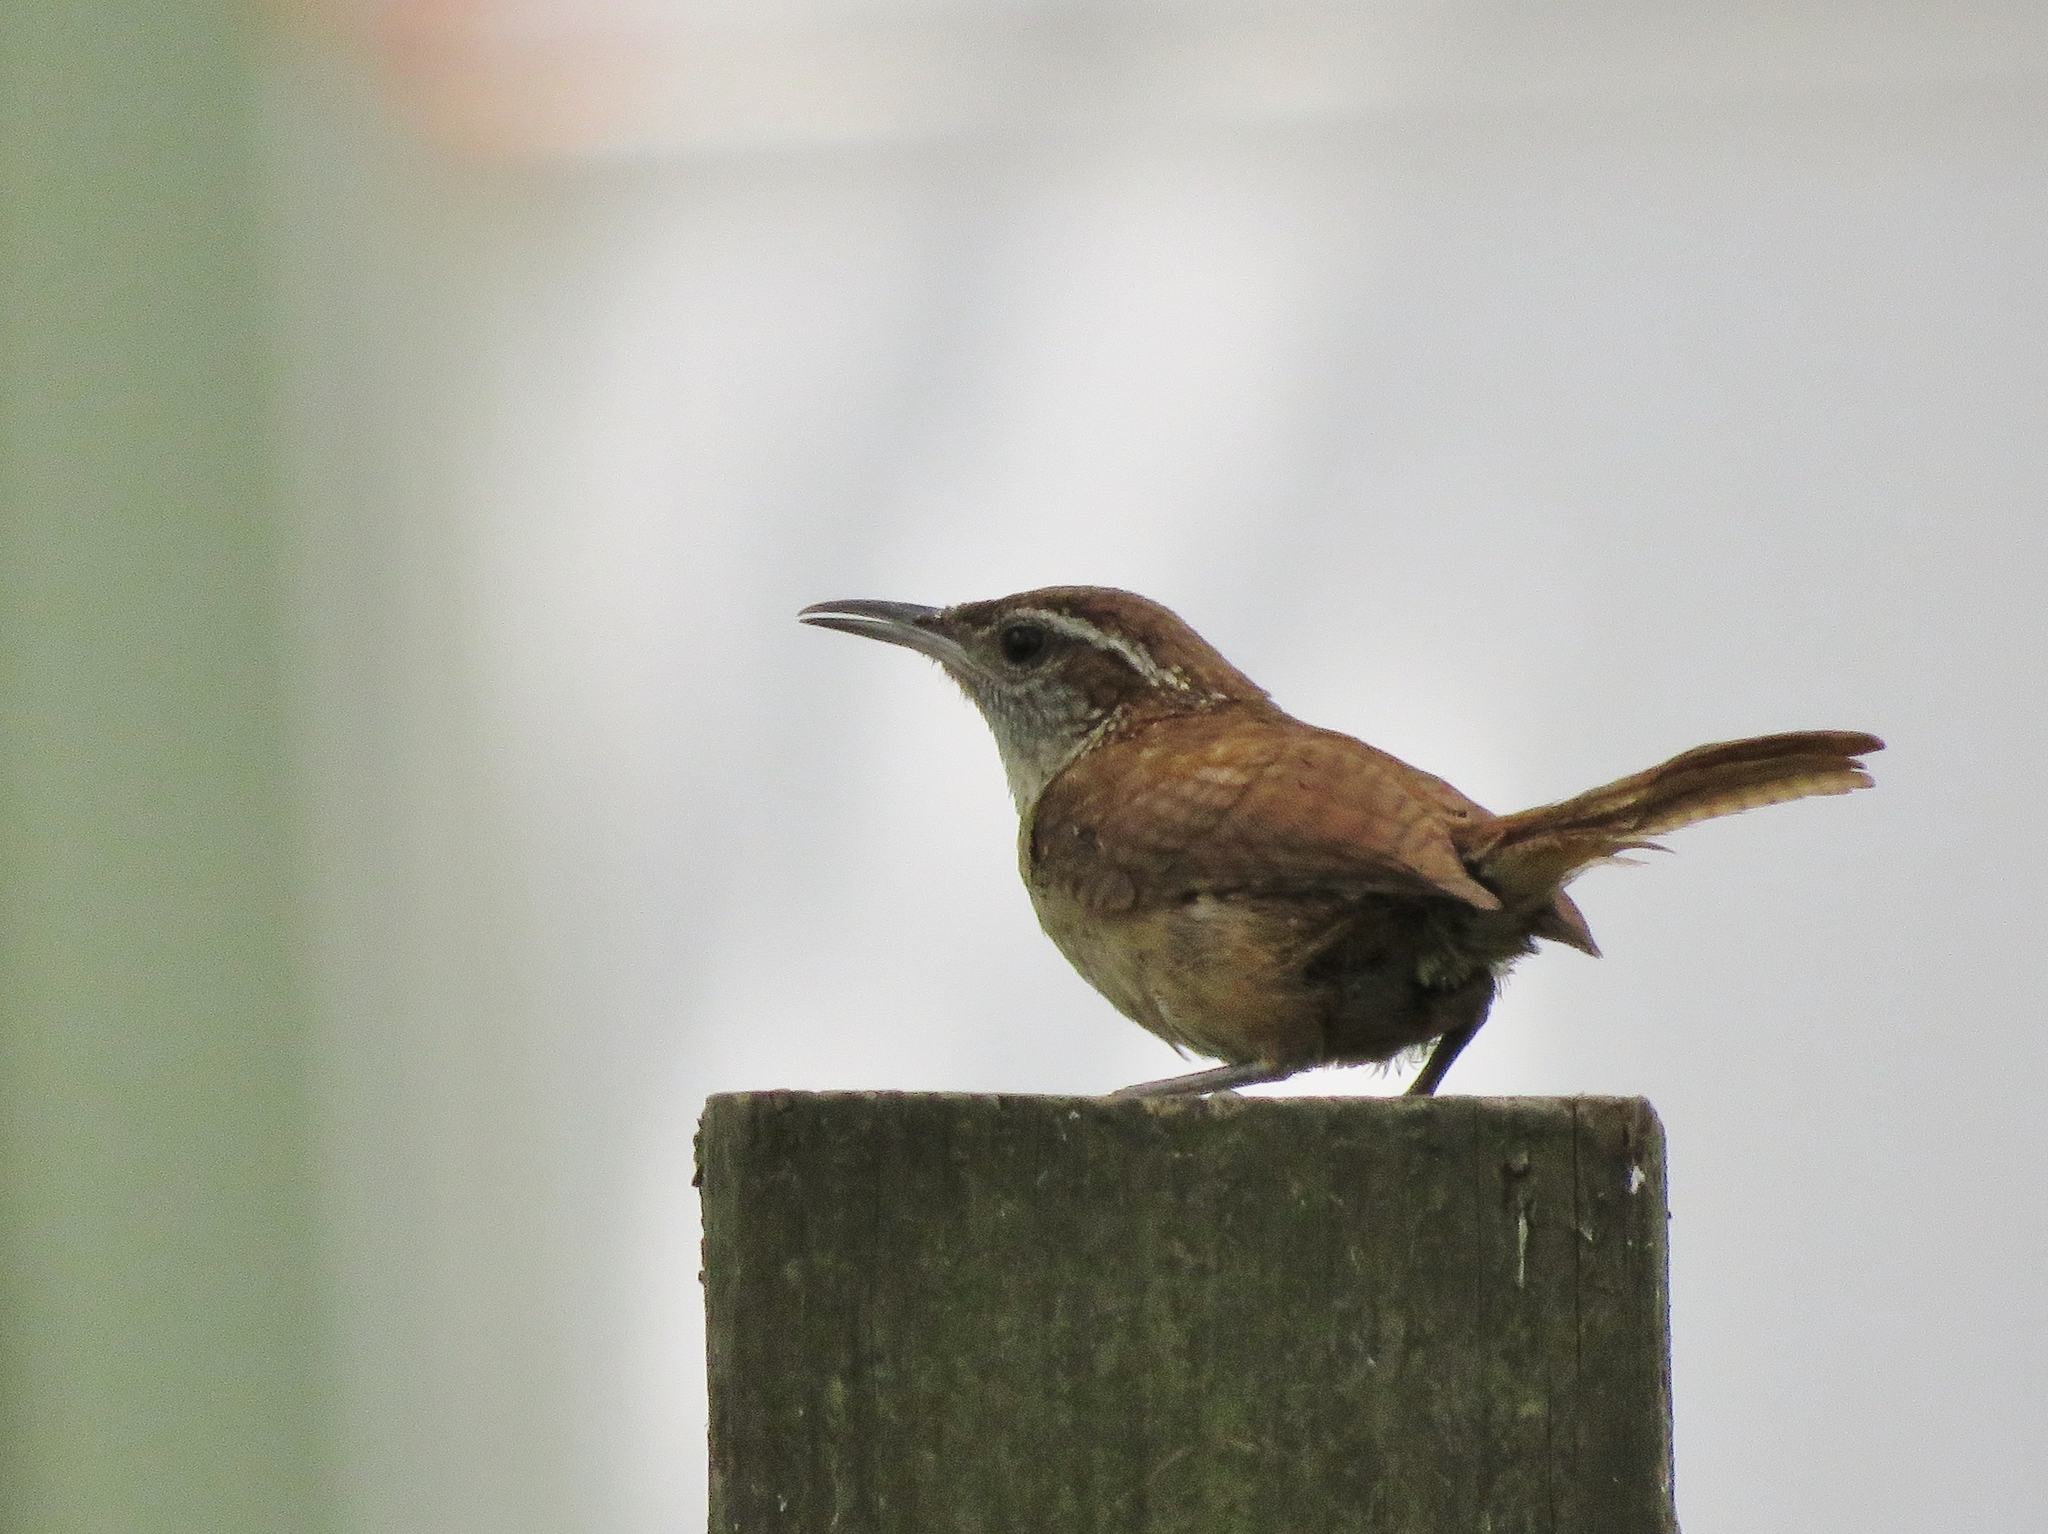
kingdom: Animalia
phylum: Chordata
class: Aves
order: Passeriformes
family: Troglodytidae
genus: Thryothorus
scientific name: Thryothorus ludovicianus
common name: Carolina wren
